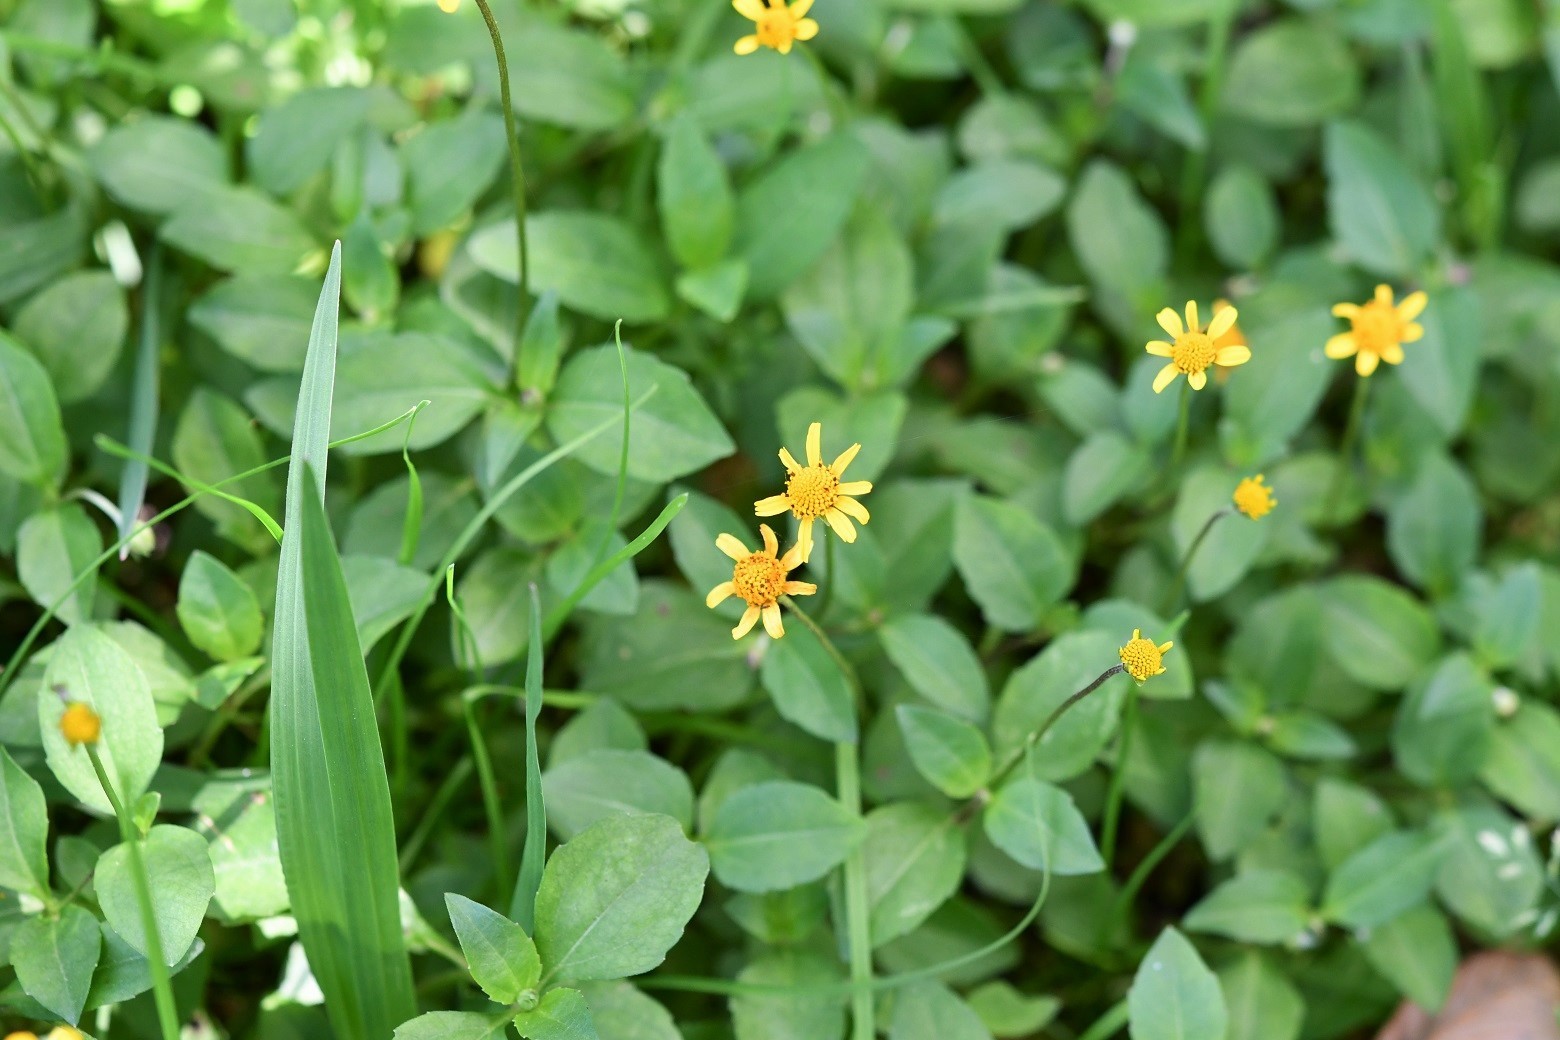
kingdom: Plantae
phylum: Tracheophyta
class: Magnoliopsida
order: Asterales
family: Asteraceae
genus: Acmella
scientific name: Acmella repens
